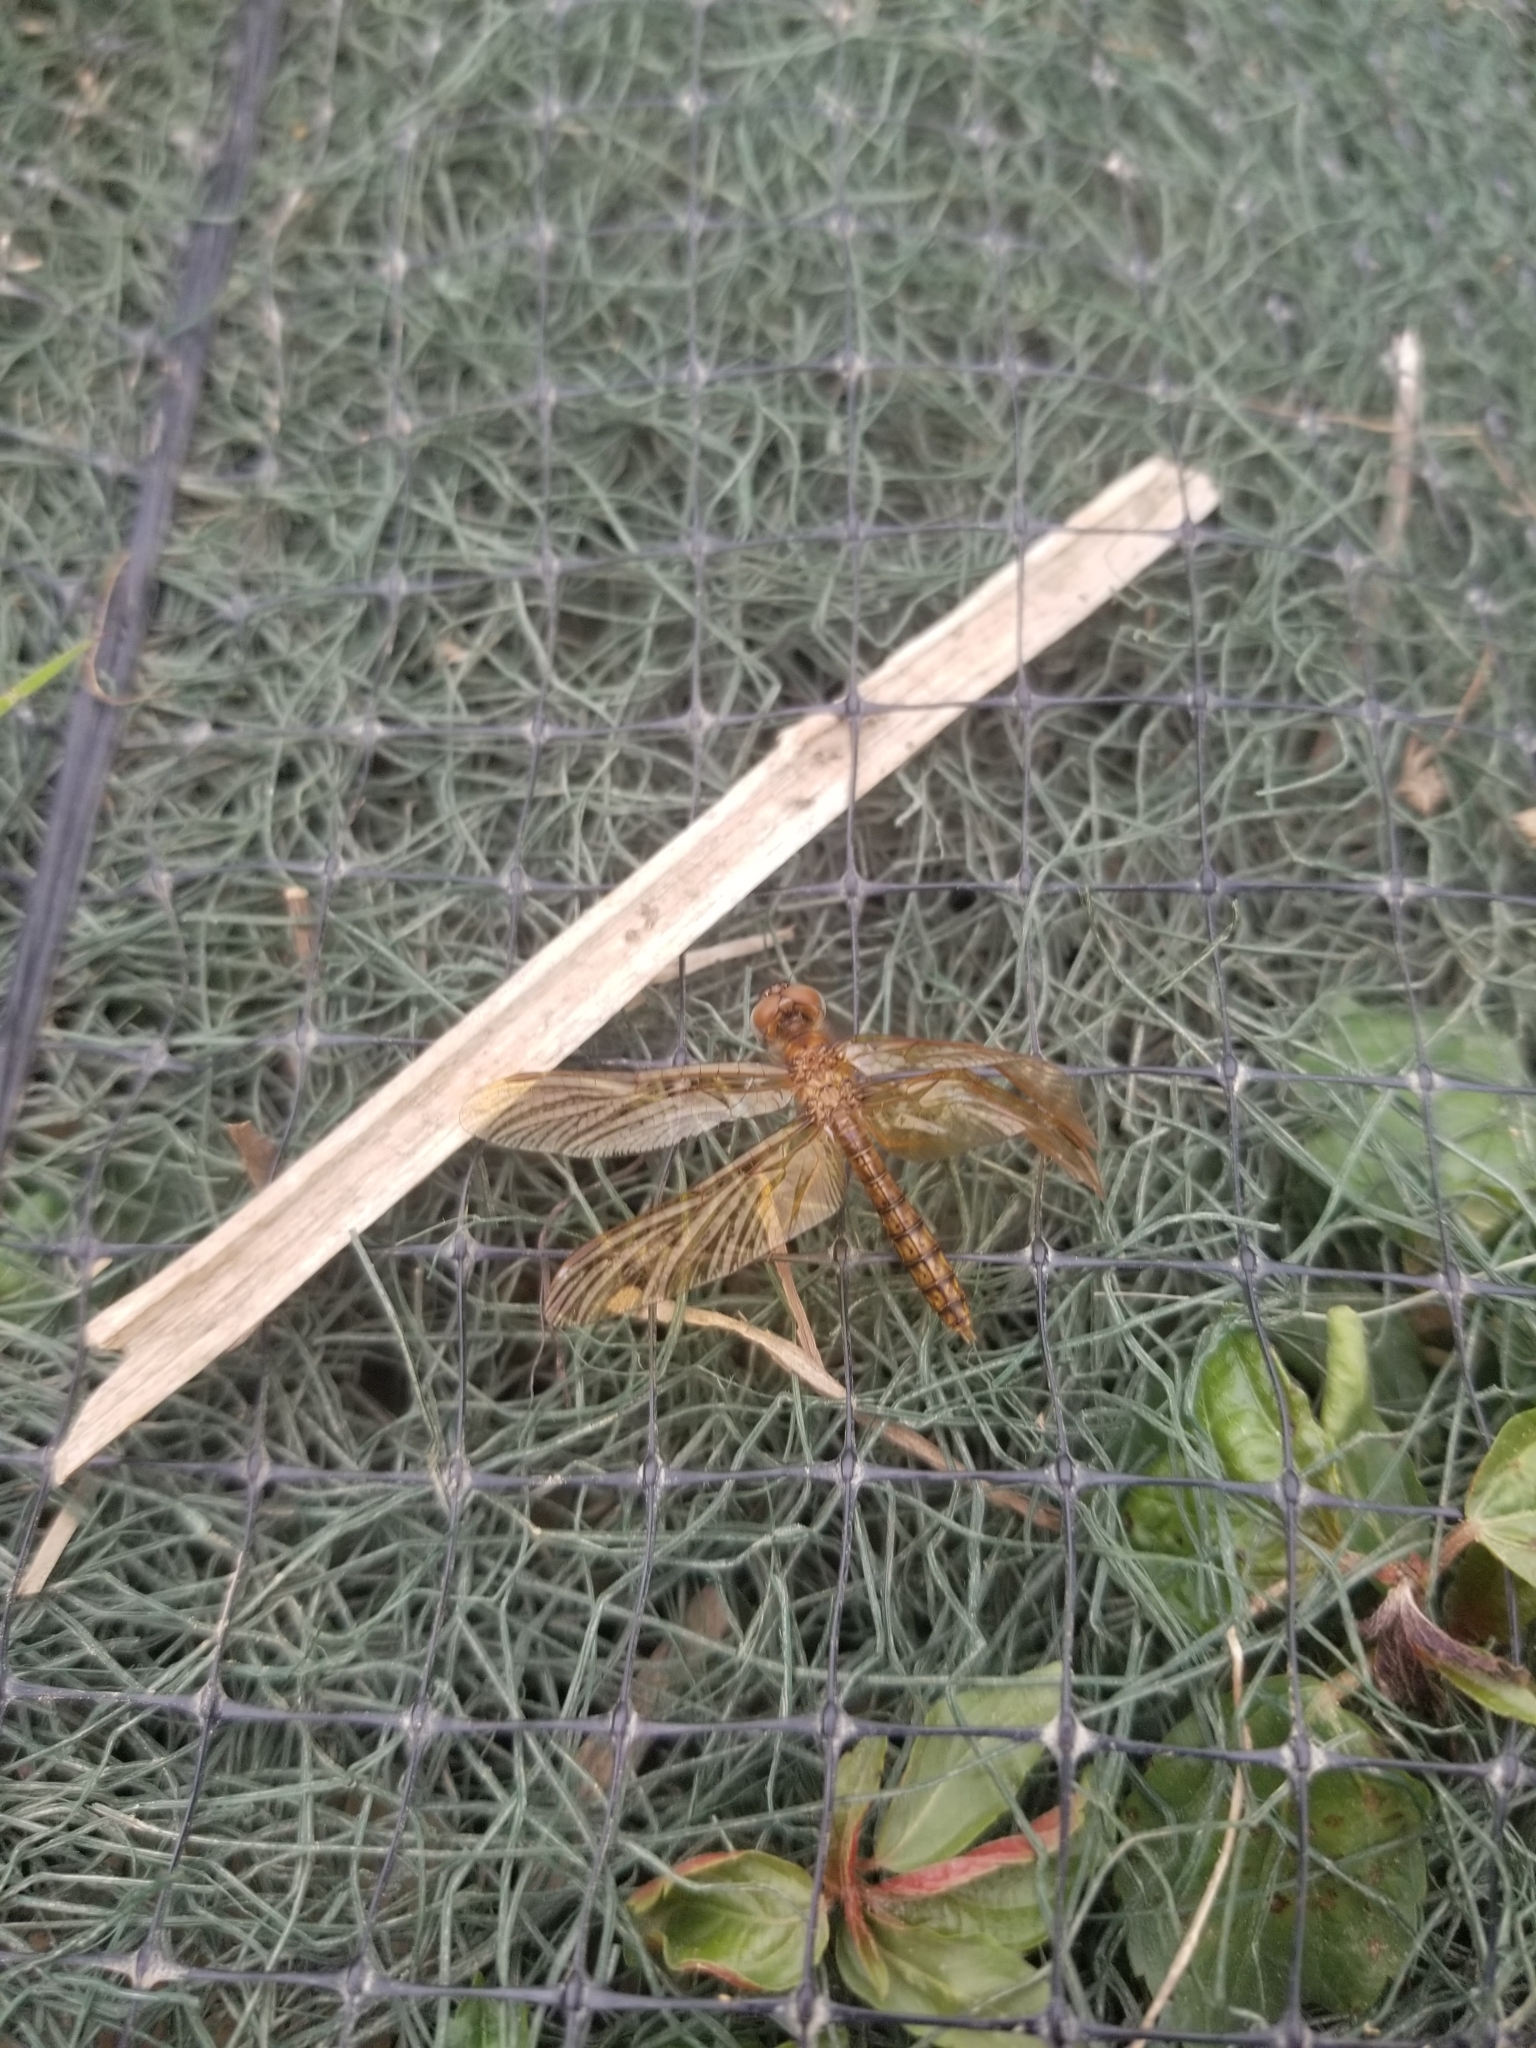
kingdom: Animalia
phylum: Arthropoda
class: Insecta
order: Odonata
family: Libellulidae
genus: Perithemis
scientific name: Perithemis tenera
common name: Eastern amberwing
